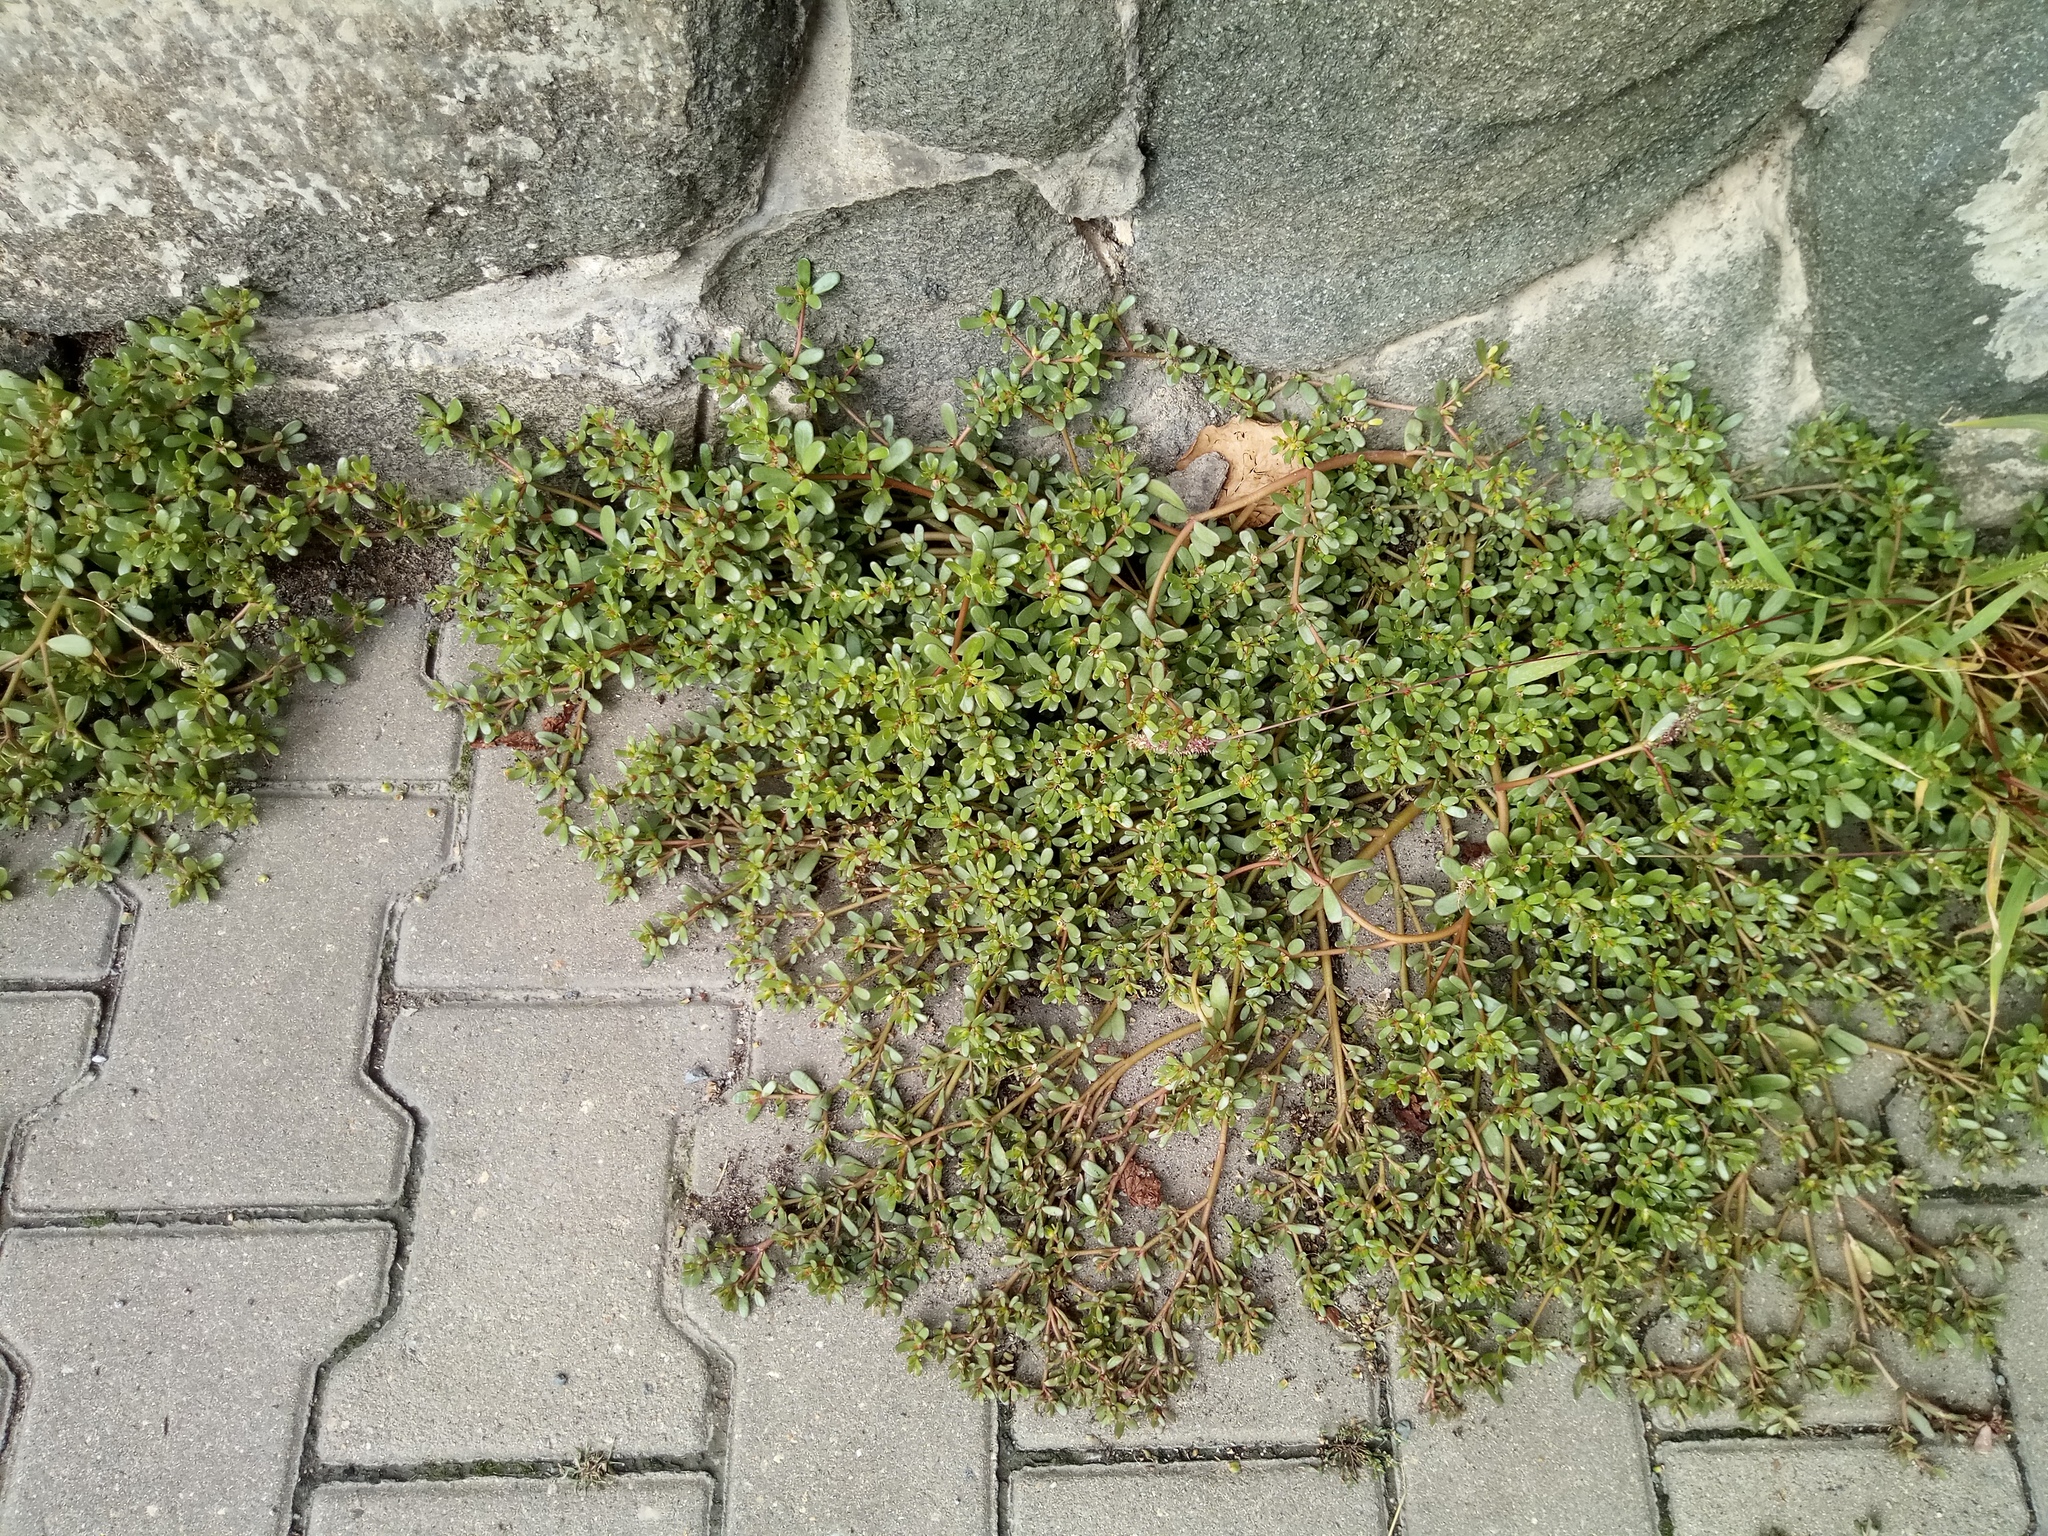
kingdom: Plantae
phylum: Tracheophyta
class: Magnoliopsida
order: Caryophyllales
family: Portulacaceae
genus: Portulaca
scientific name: Portulaca oleracea
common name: Common purslane
